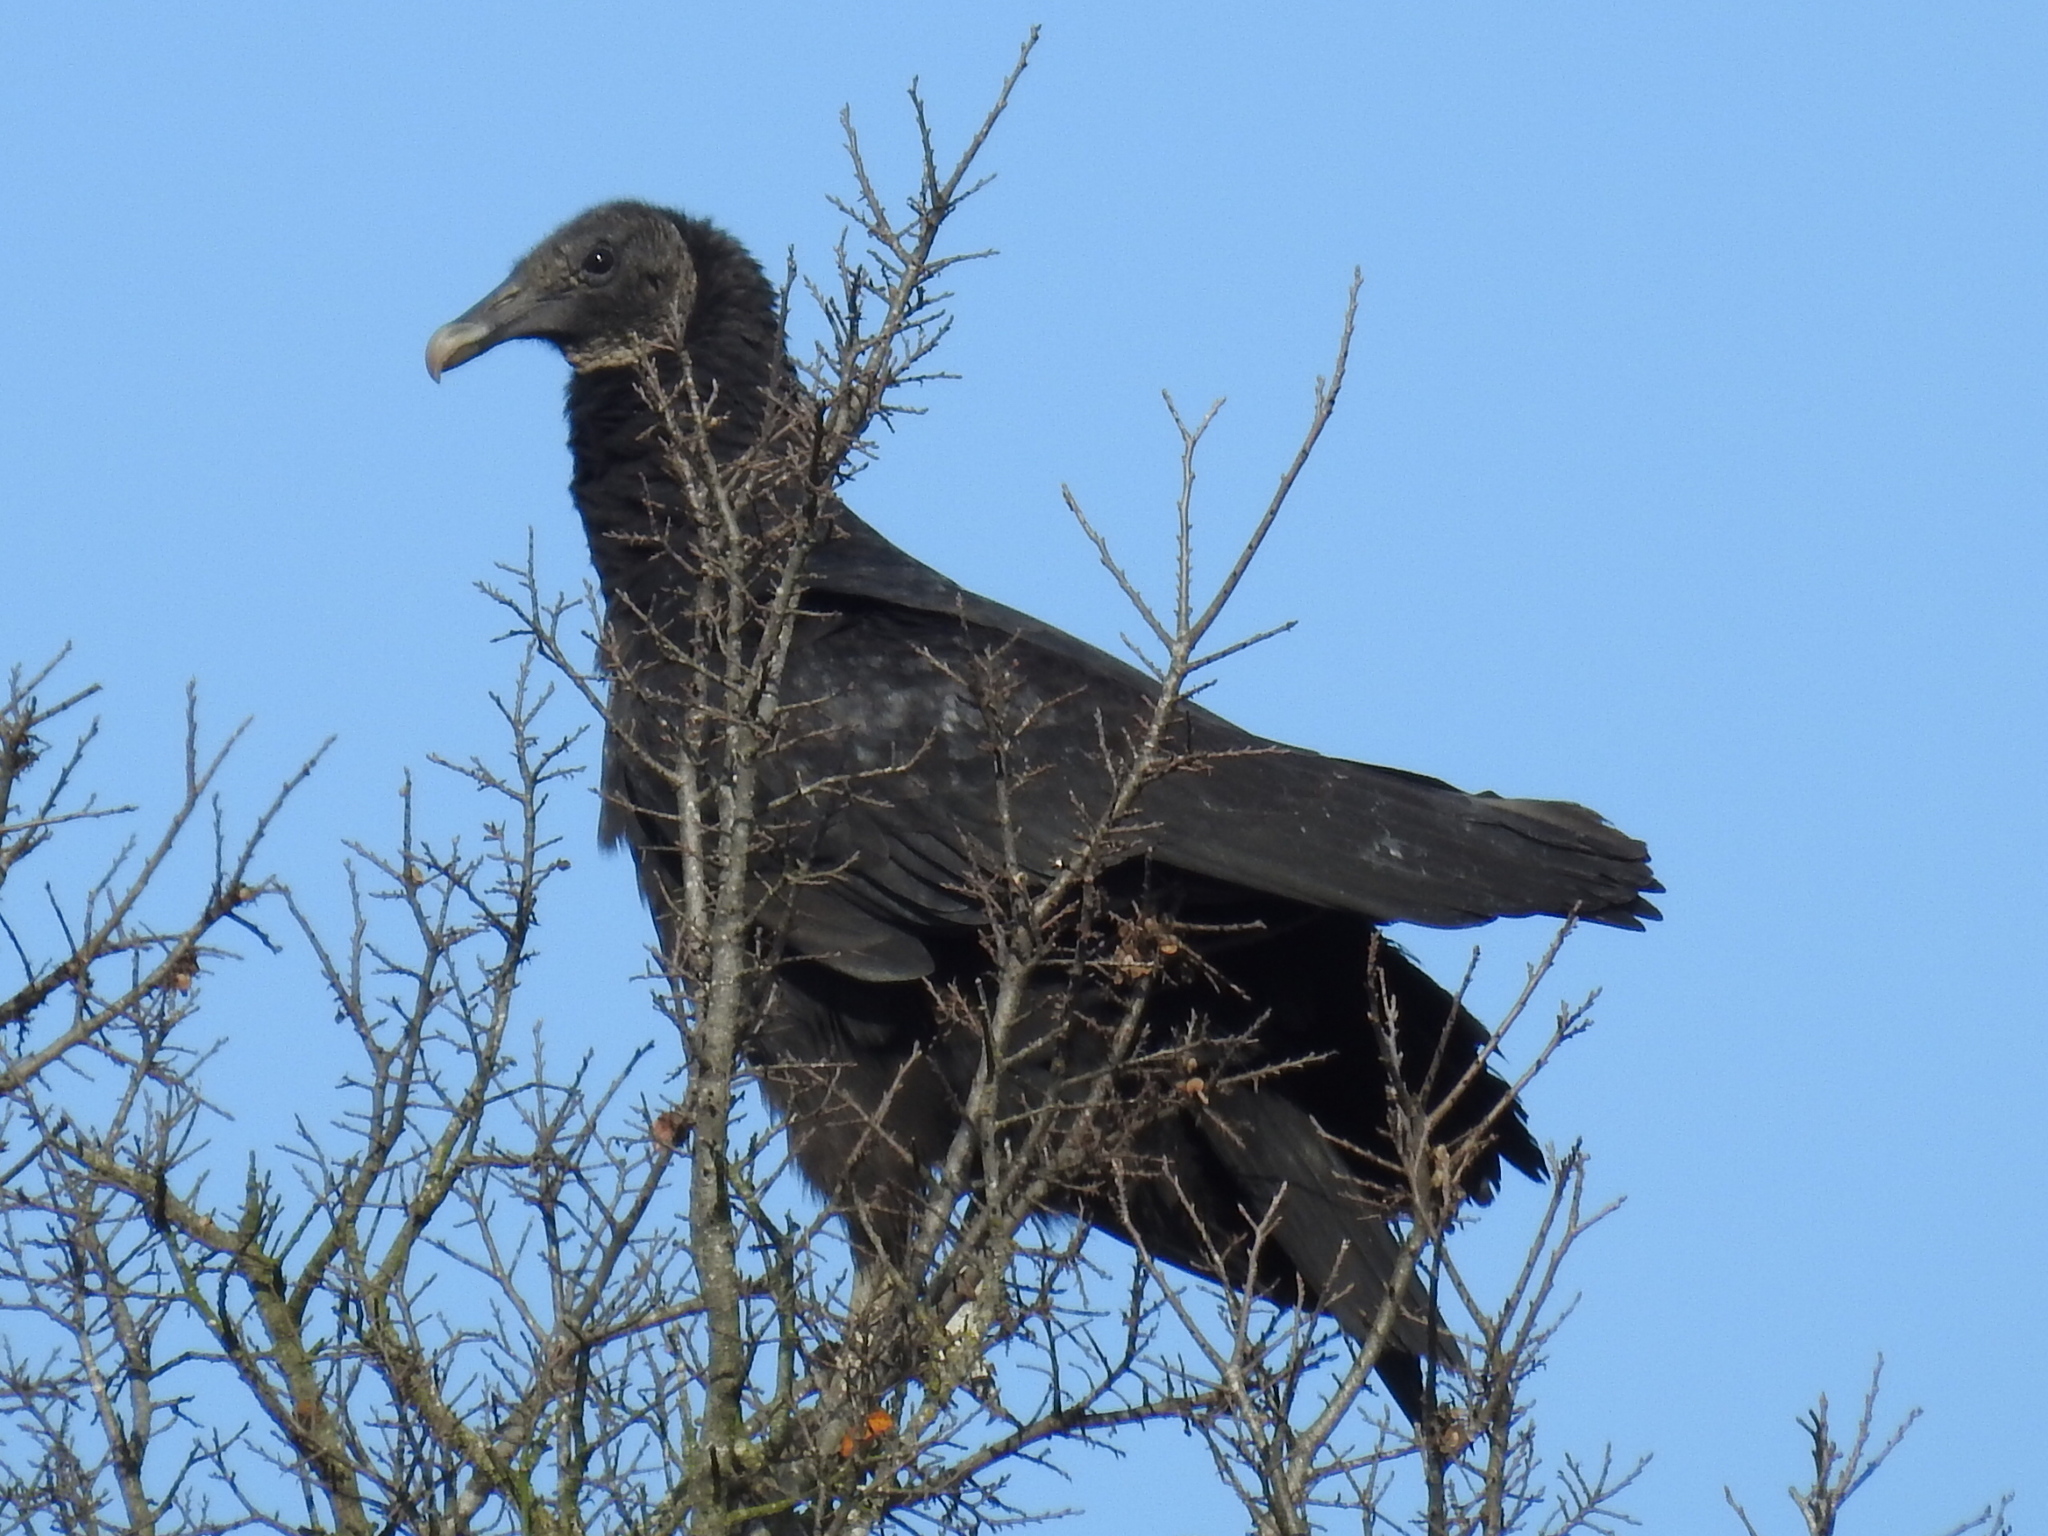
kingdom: Animalia
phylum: Chordata
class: Aves
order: Accipitriformes
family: Cathartidae
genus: Coragyps
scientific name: Coragyps atratus
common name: Black vulture
